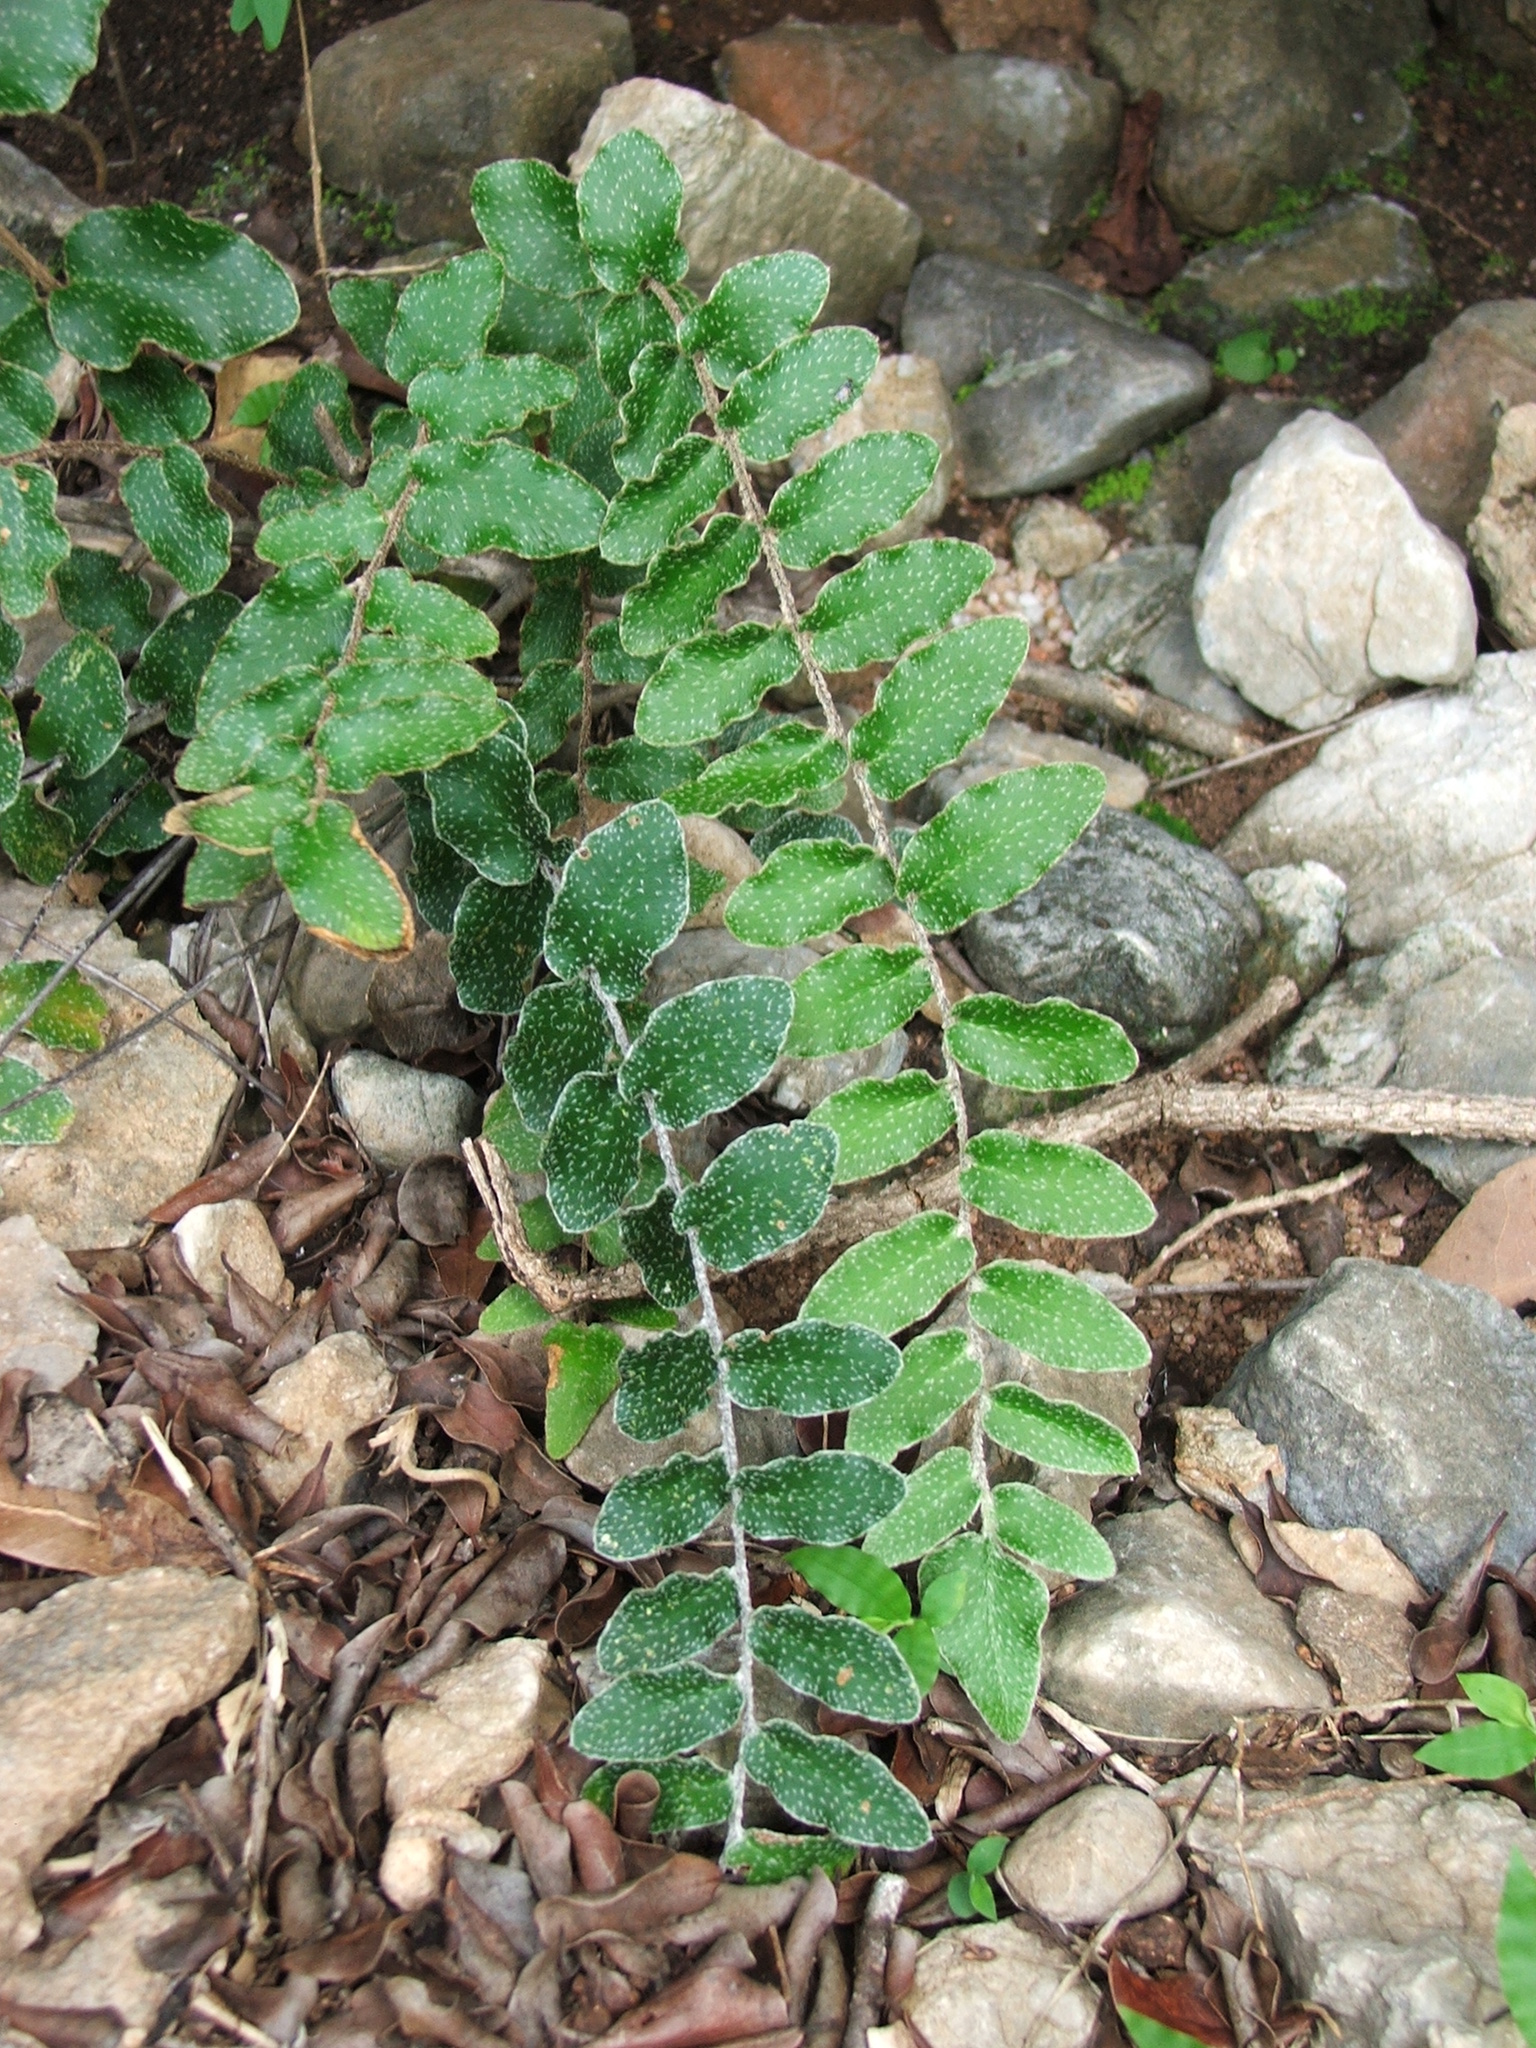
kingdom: Plantae
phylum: Tracheophyta
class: Polypodiopsida
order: Polypodiales
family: Pteridaceae
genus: Pellaea
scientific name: Pellaea muelleri
